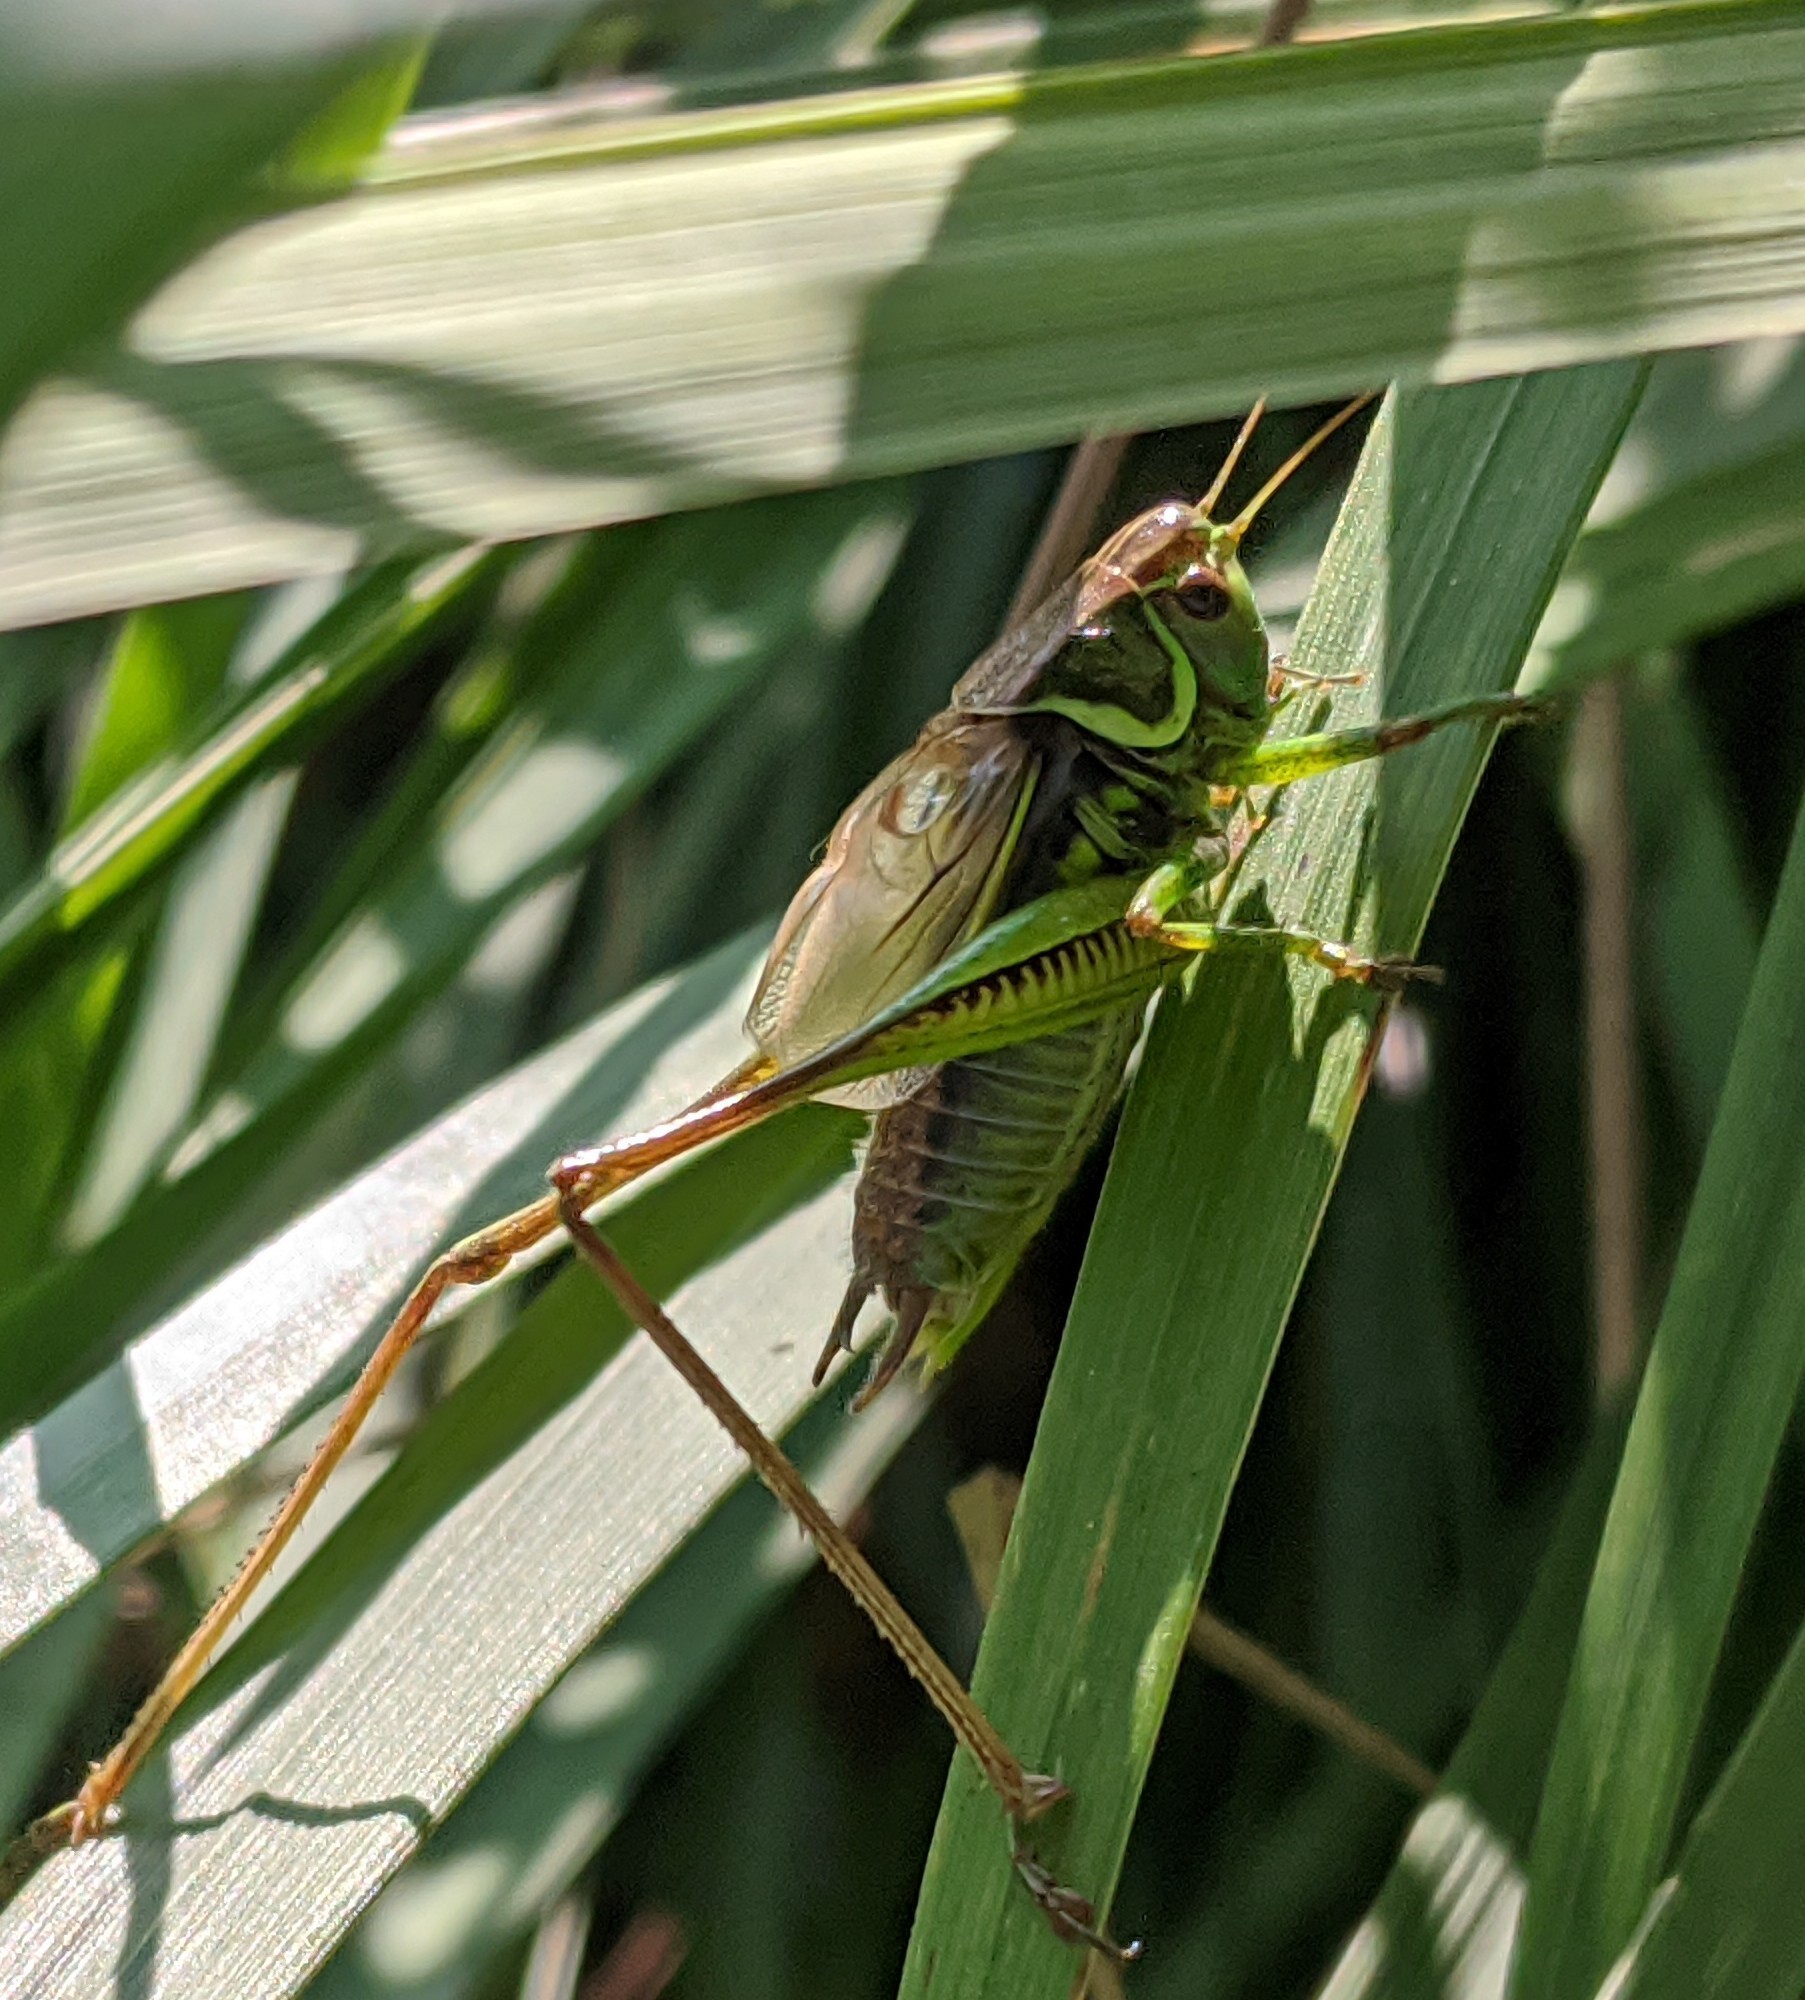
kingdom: Animalia
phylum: Arthropoda
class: Insecta
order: Orthoptera
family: Tettigoniidae
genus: Roeseliana
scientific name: Roeseliana roeselii
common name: Roesel's bush cricket
